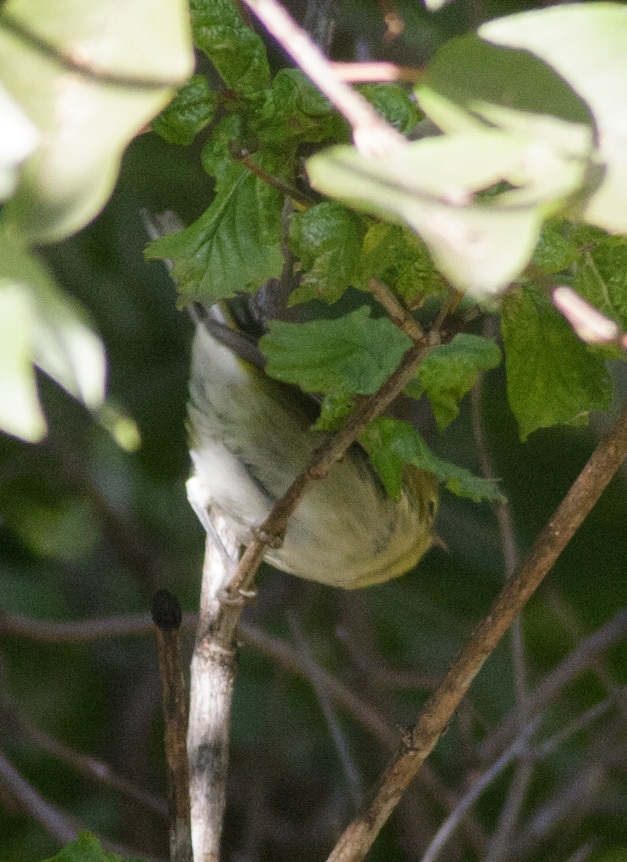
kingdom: Animalia
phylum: Chordata
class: Aves
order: Passeriformes
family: Parulidae
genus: Leiothlypis
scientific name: Leiothlypis peregrina
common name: Tennessee warbler
